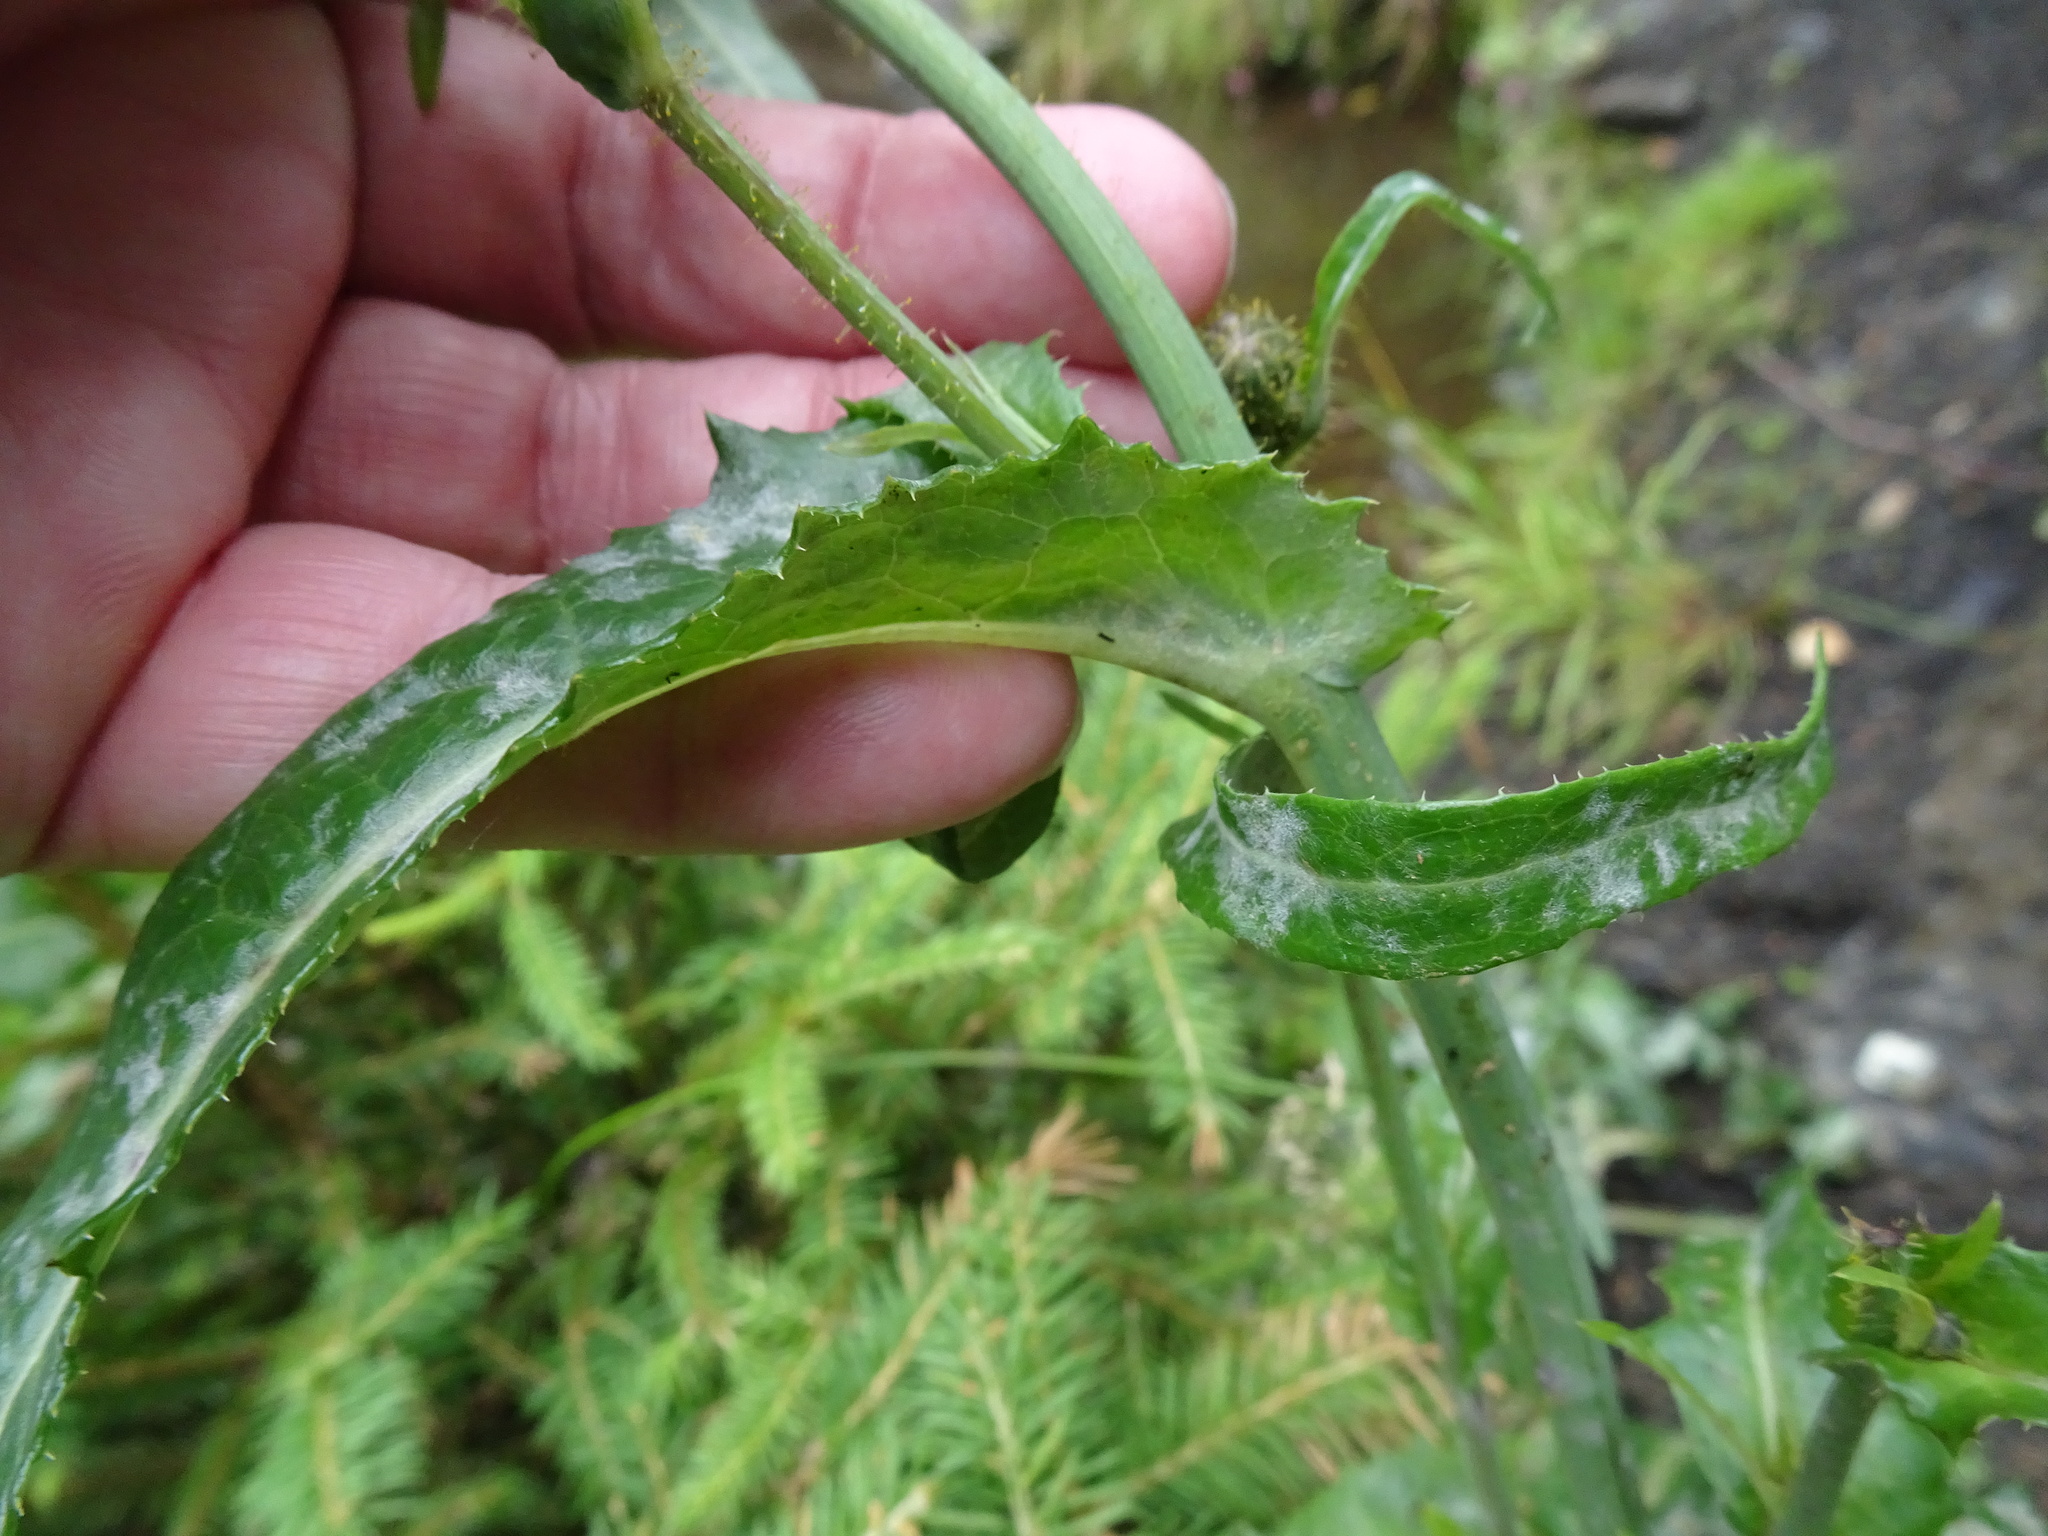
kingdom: Plantae
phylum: Tracheophyta
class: Magnoliopsida
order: Asterales
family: Asteraceae
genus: Sonchus
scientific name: Sonchus arvensis
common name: Perennial sow-thistle
